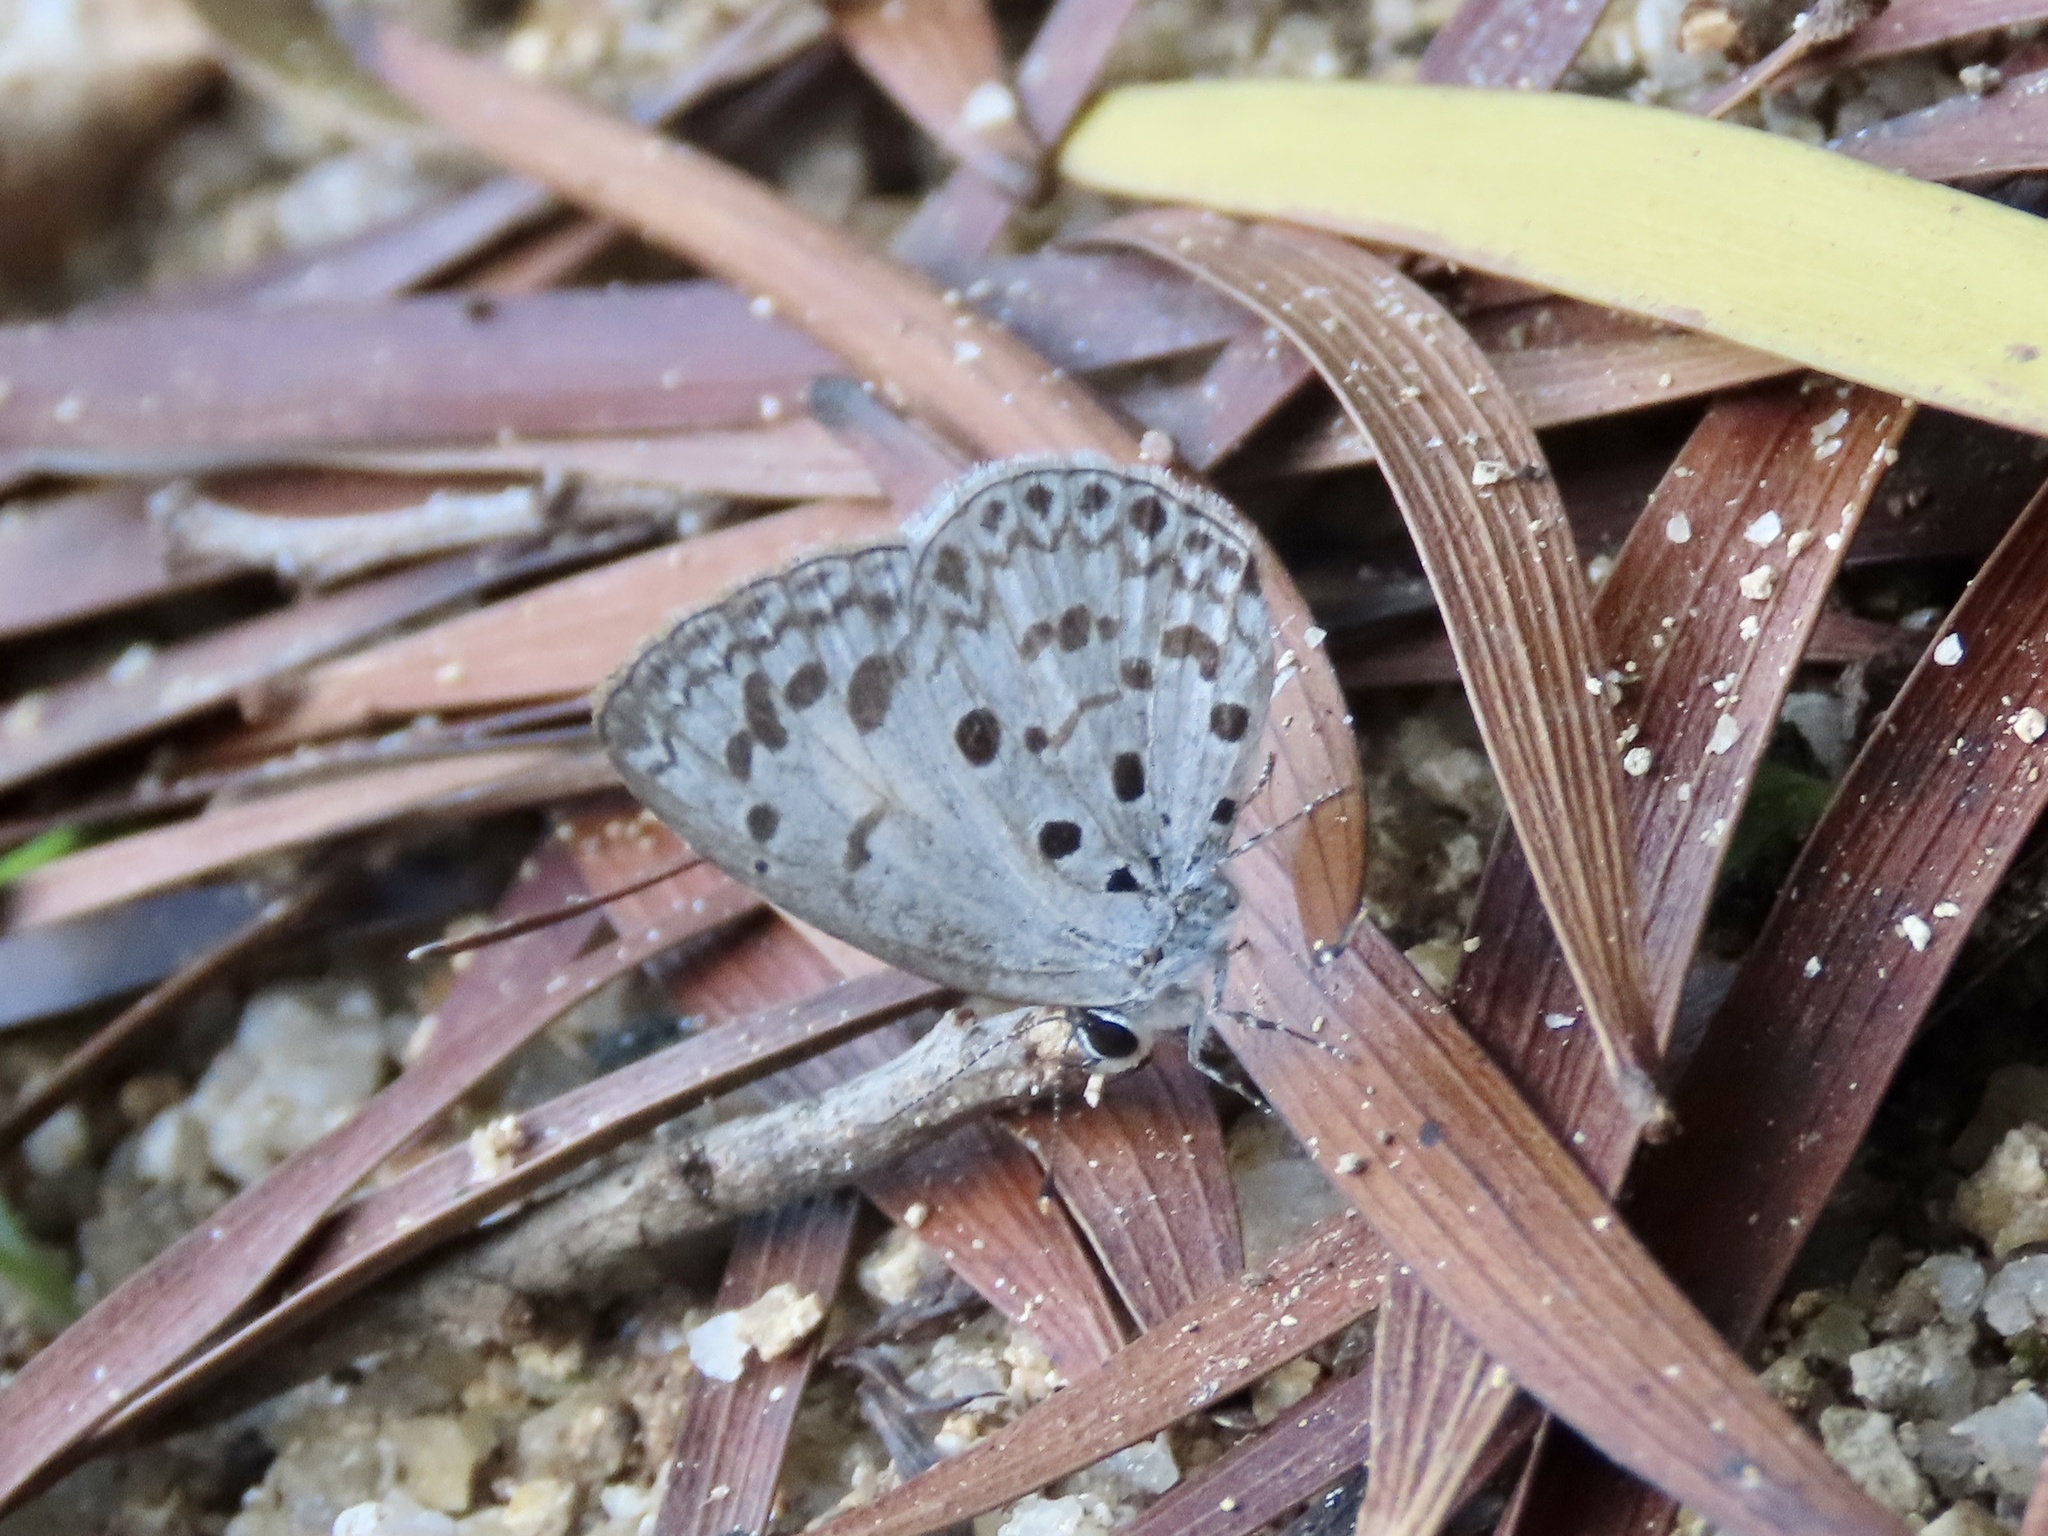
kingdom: Animalia
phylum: Arthropoda
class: Insecta
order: Lepidoptera
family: Lycaenidae
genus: Acytolepis
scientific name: Acytolepis puspa
